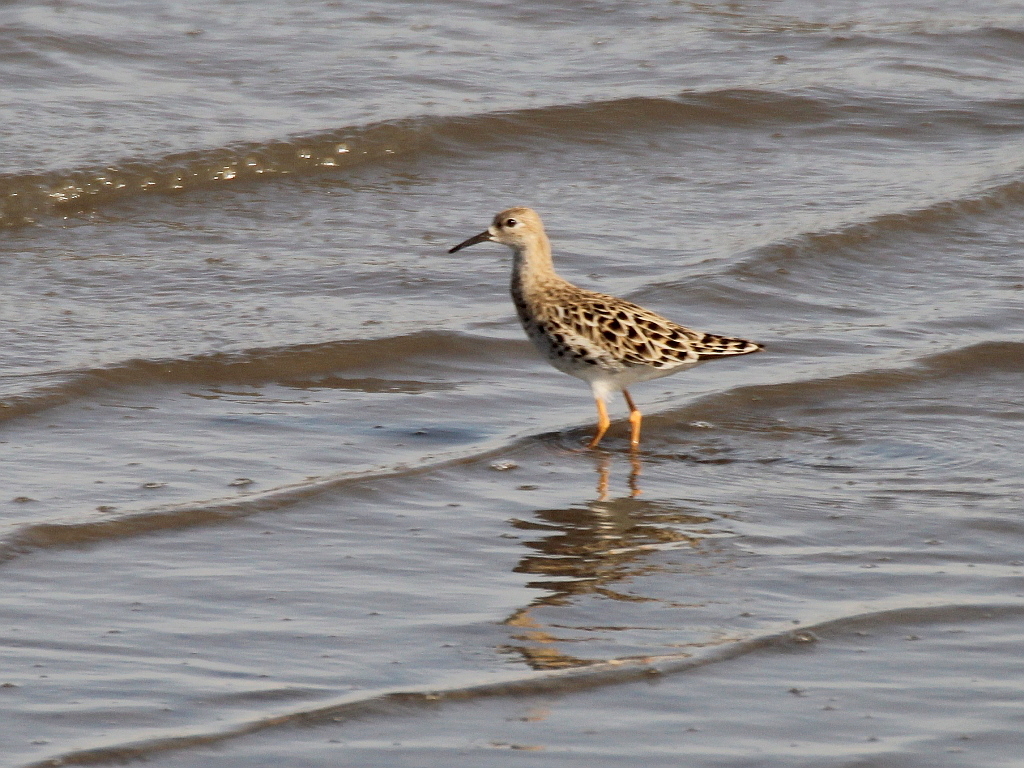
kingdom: Animalia
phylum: Chordata
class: Aves
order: Charadriiformes
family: Scolopacidae
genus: Calidris
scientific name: Calidris pugnax
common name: Ruff
